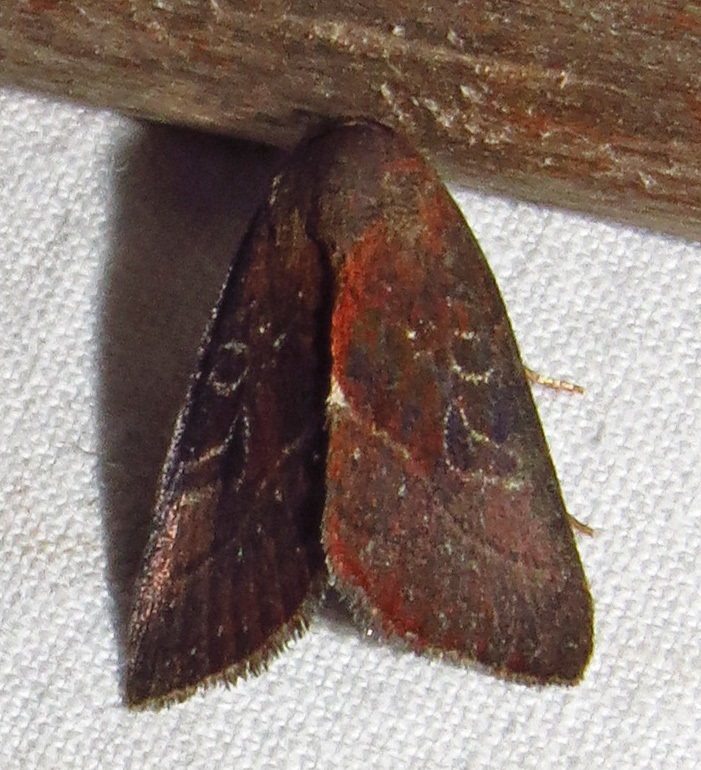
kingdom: Animalia
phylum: Arthropoda
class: Insecta
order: Lepidoptera
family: Noctuidae
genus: Galgula
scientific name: Galgula partita
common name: Wedgeling
